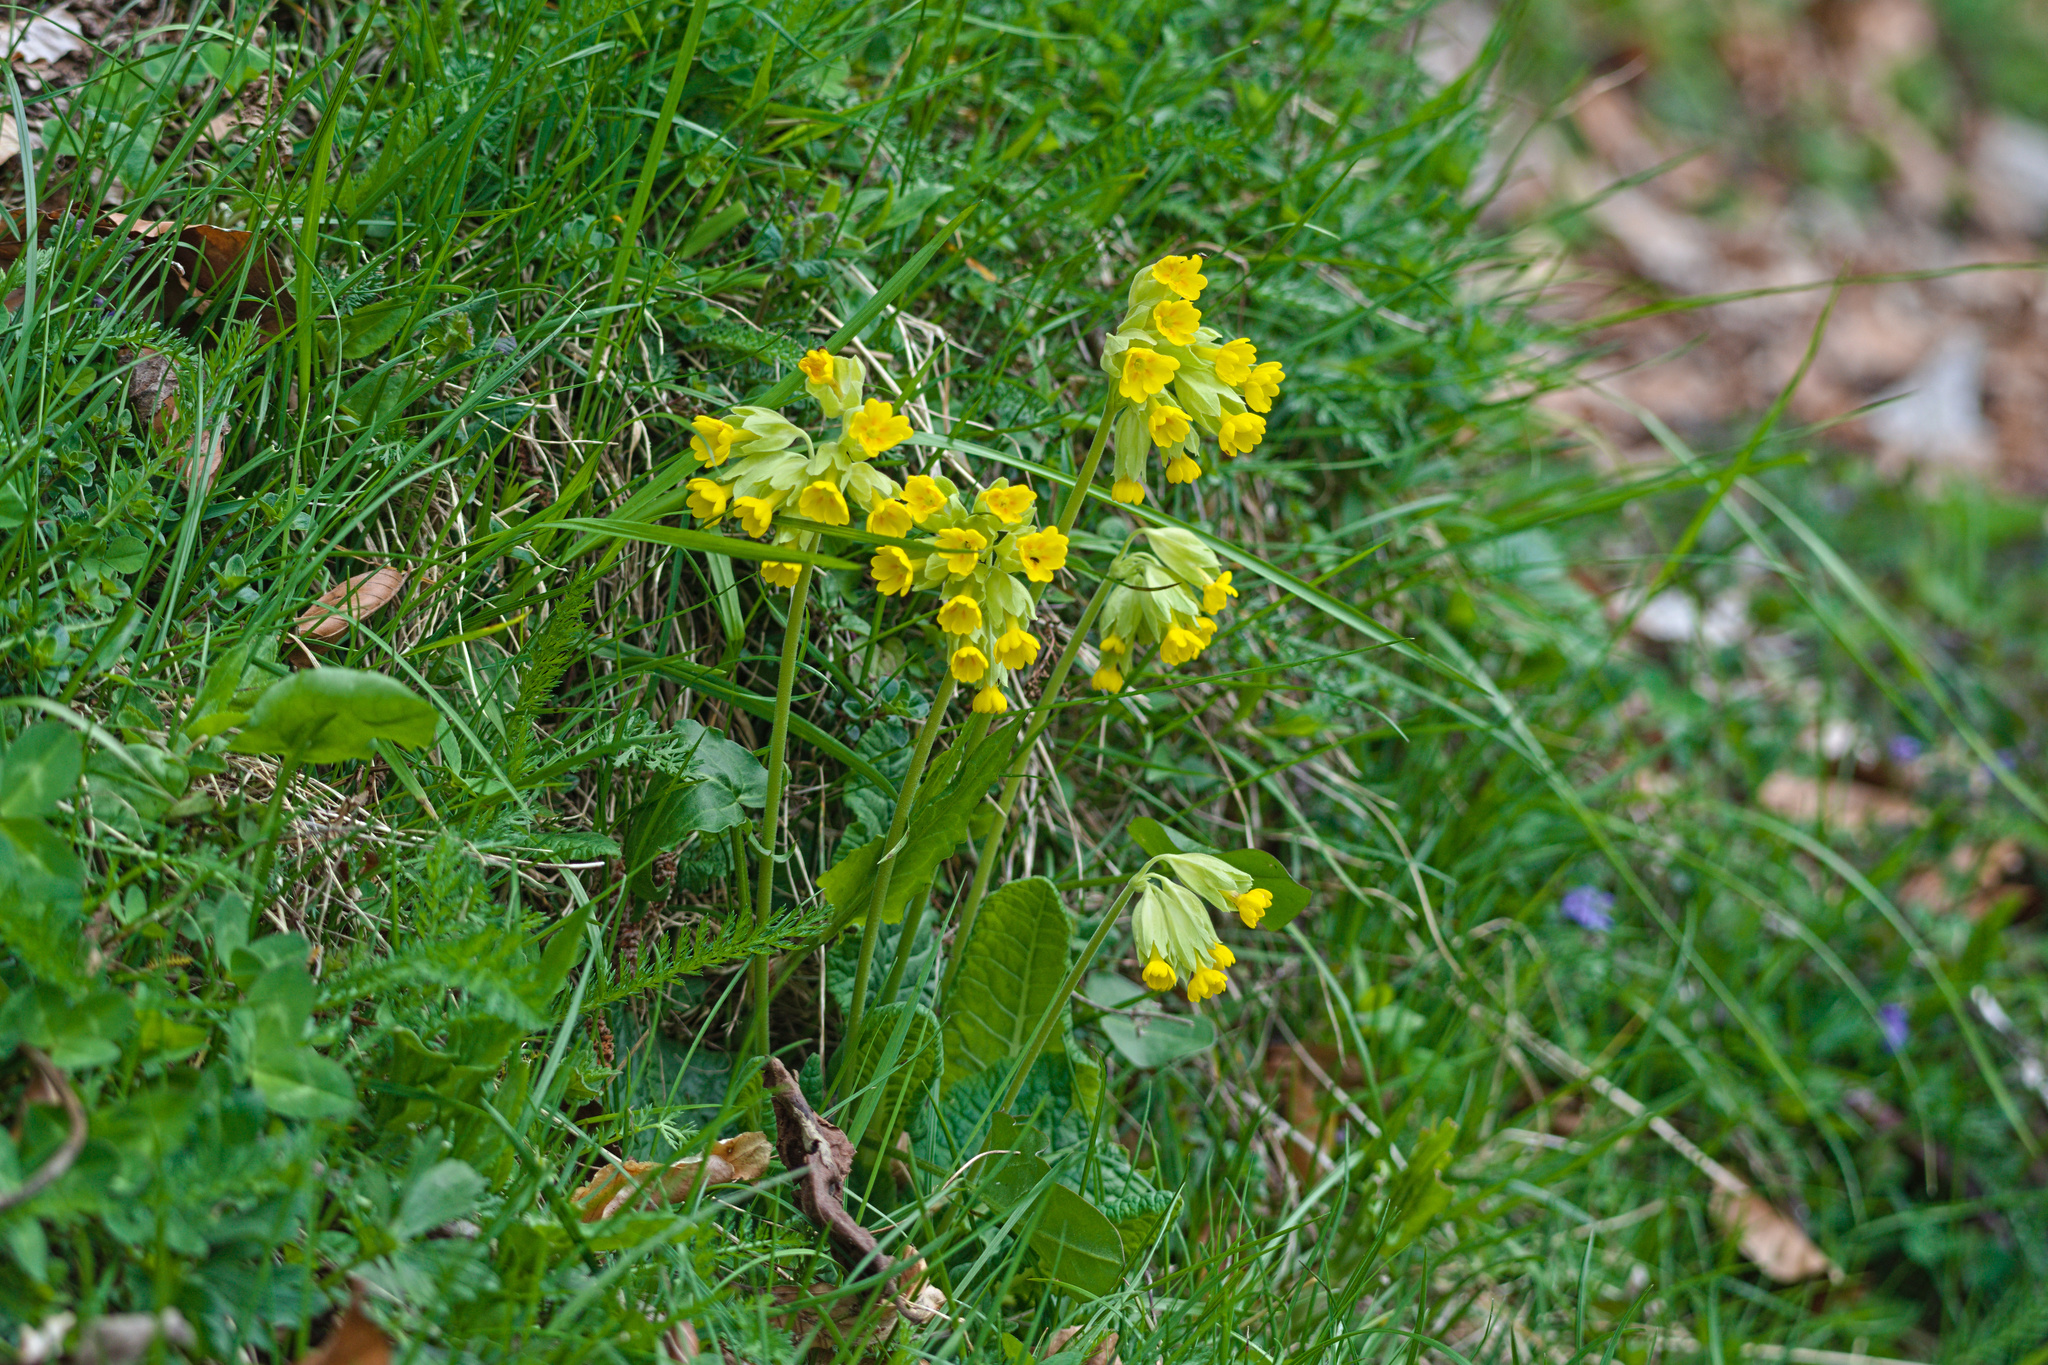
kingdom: Plantae
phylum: Tracheophyta
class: Magnoliopsida
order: Ericales
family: Primulaceae
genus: Primula
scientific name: Primula veris
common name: Cowslip
